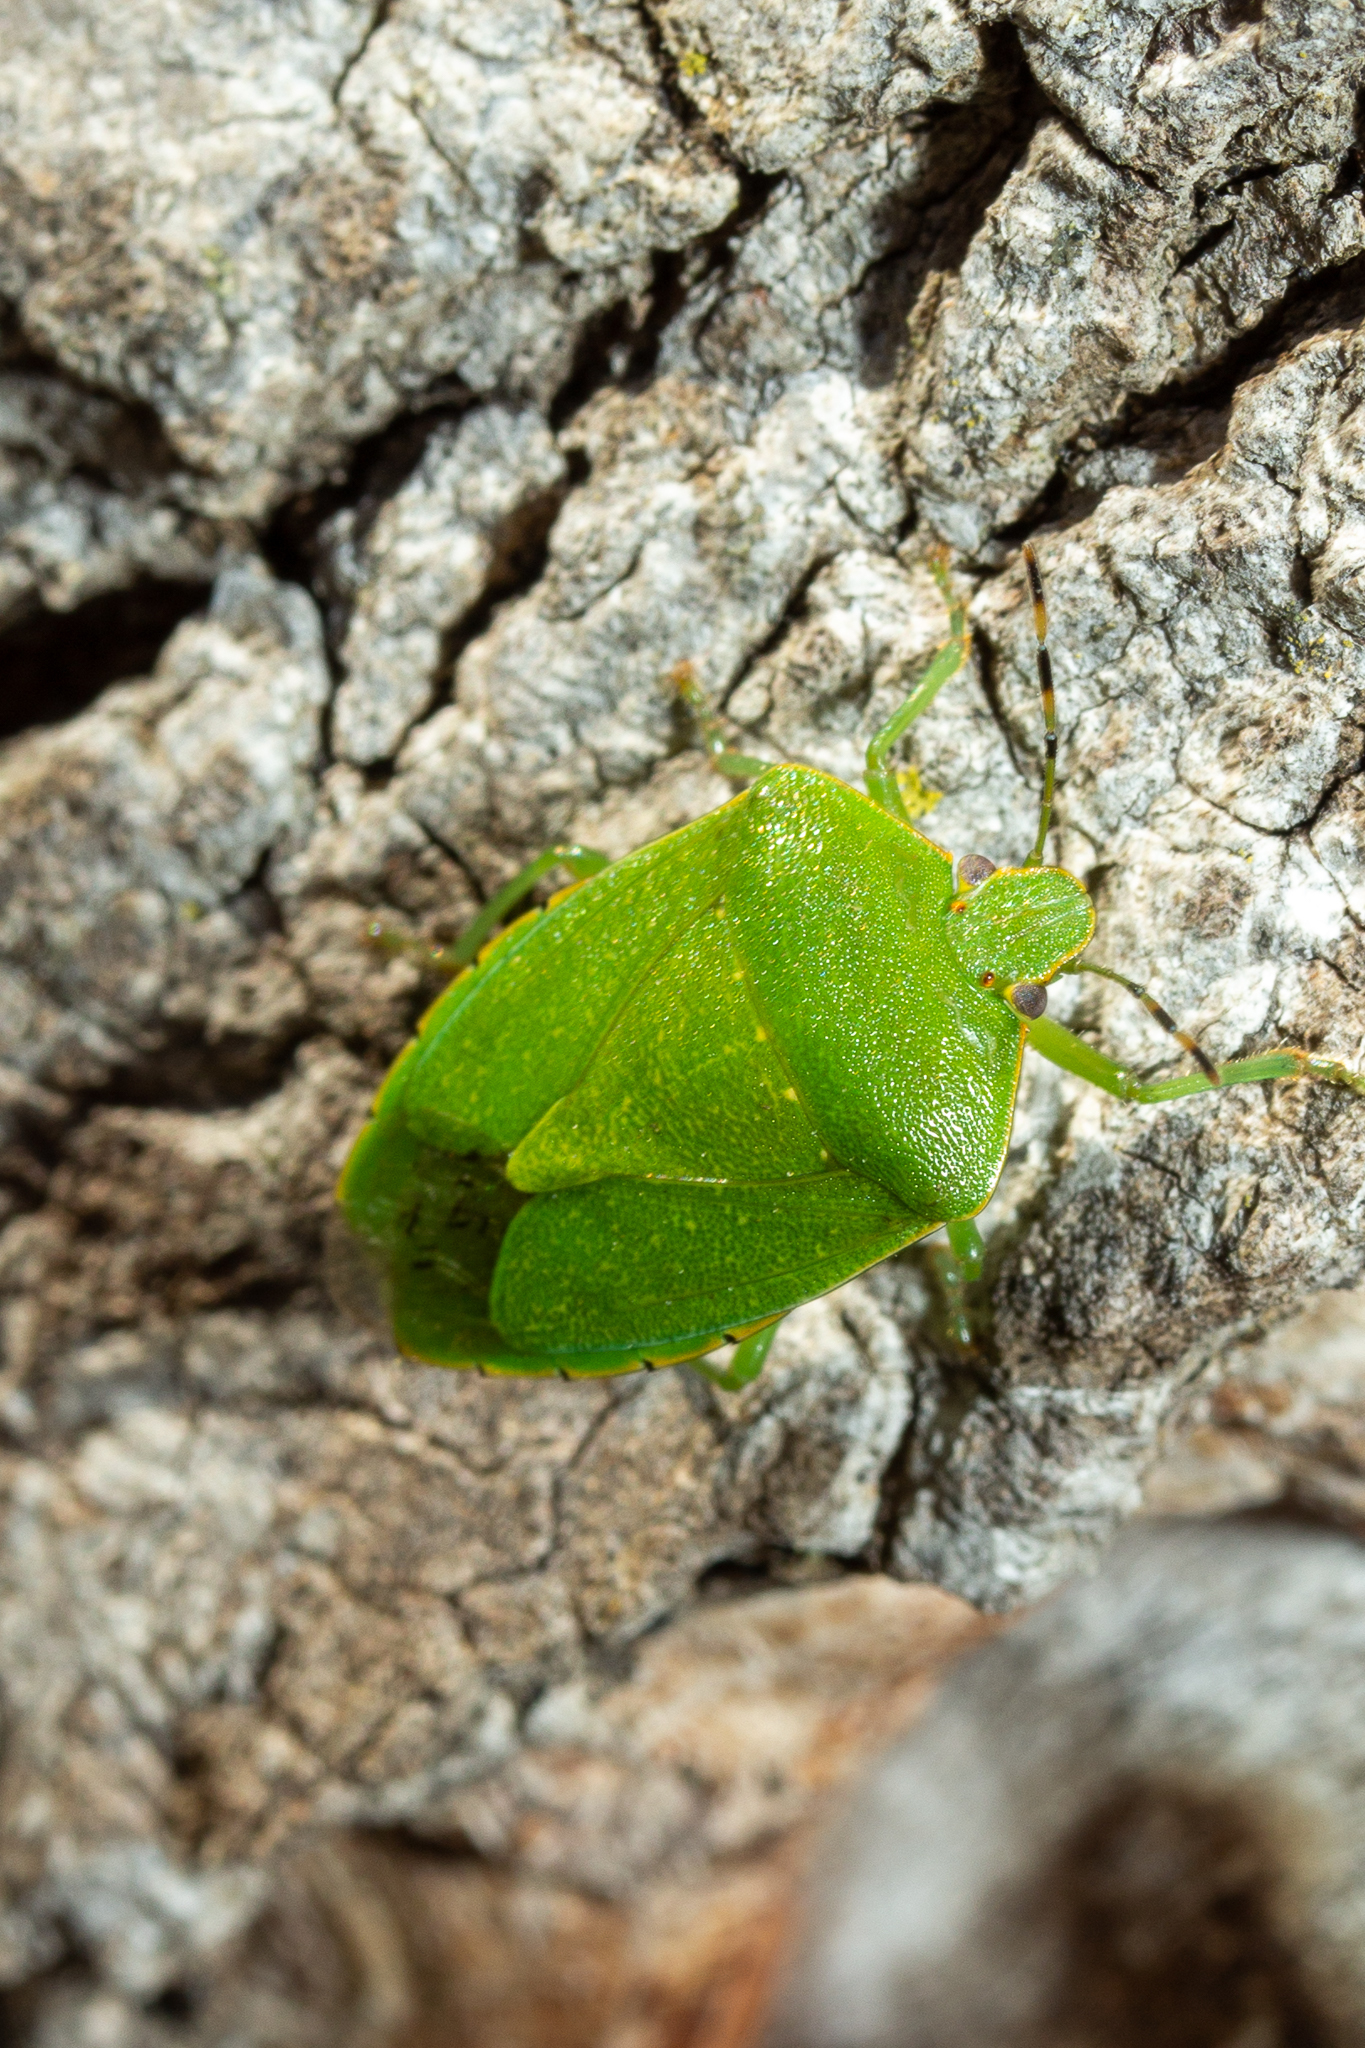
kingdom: Animalia
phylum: Arthropoda
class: Insecta
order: Hemiptera
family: Pentatomidae
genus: Chinavia
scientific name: Chinavia hilaris
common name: Green stink bug
